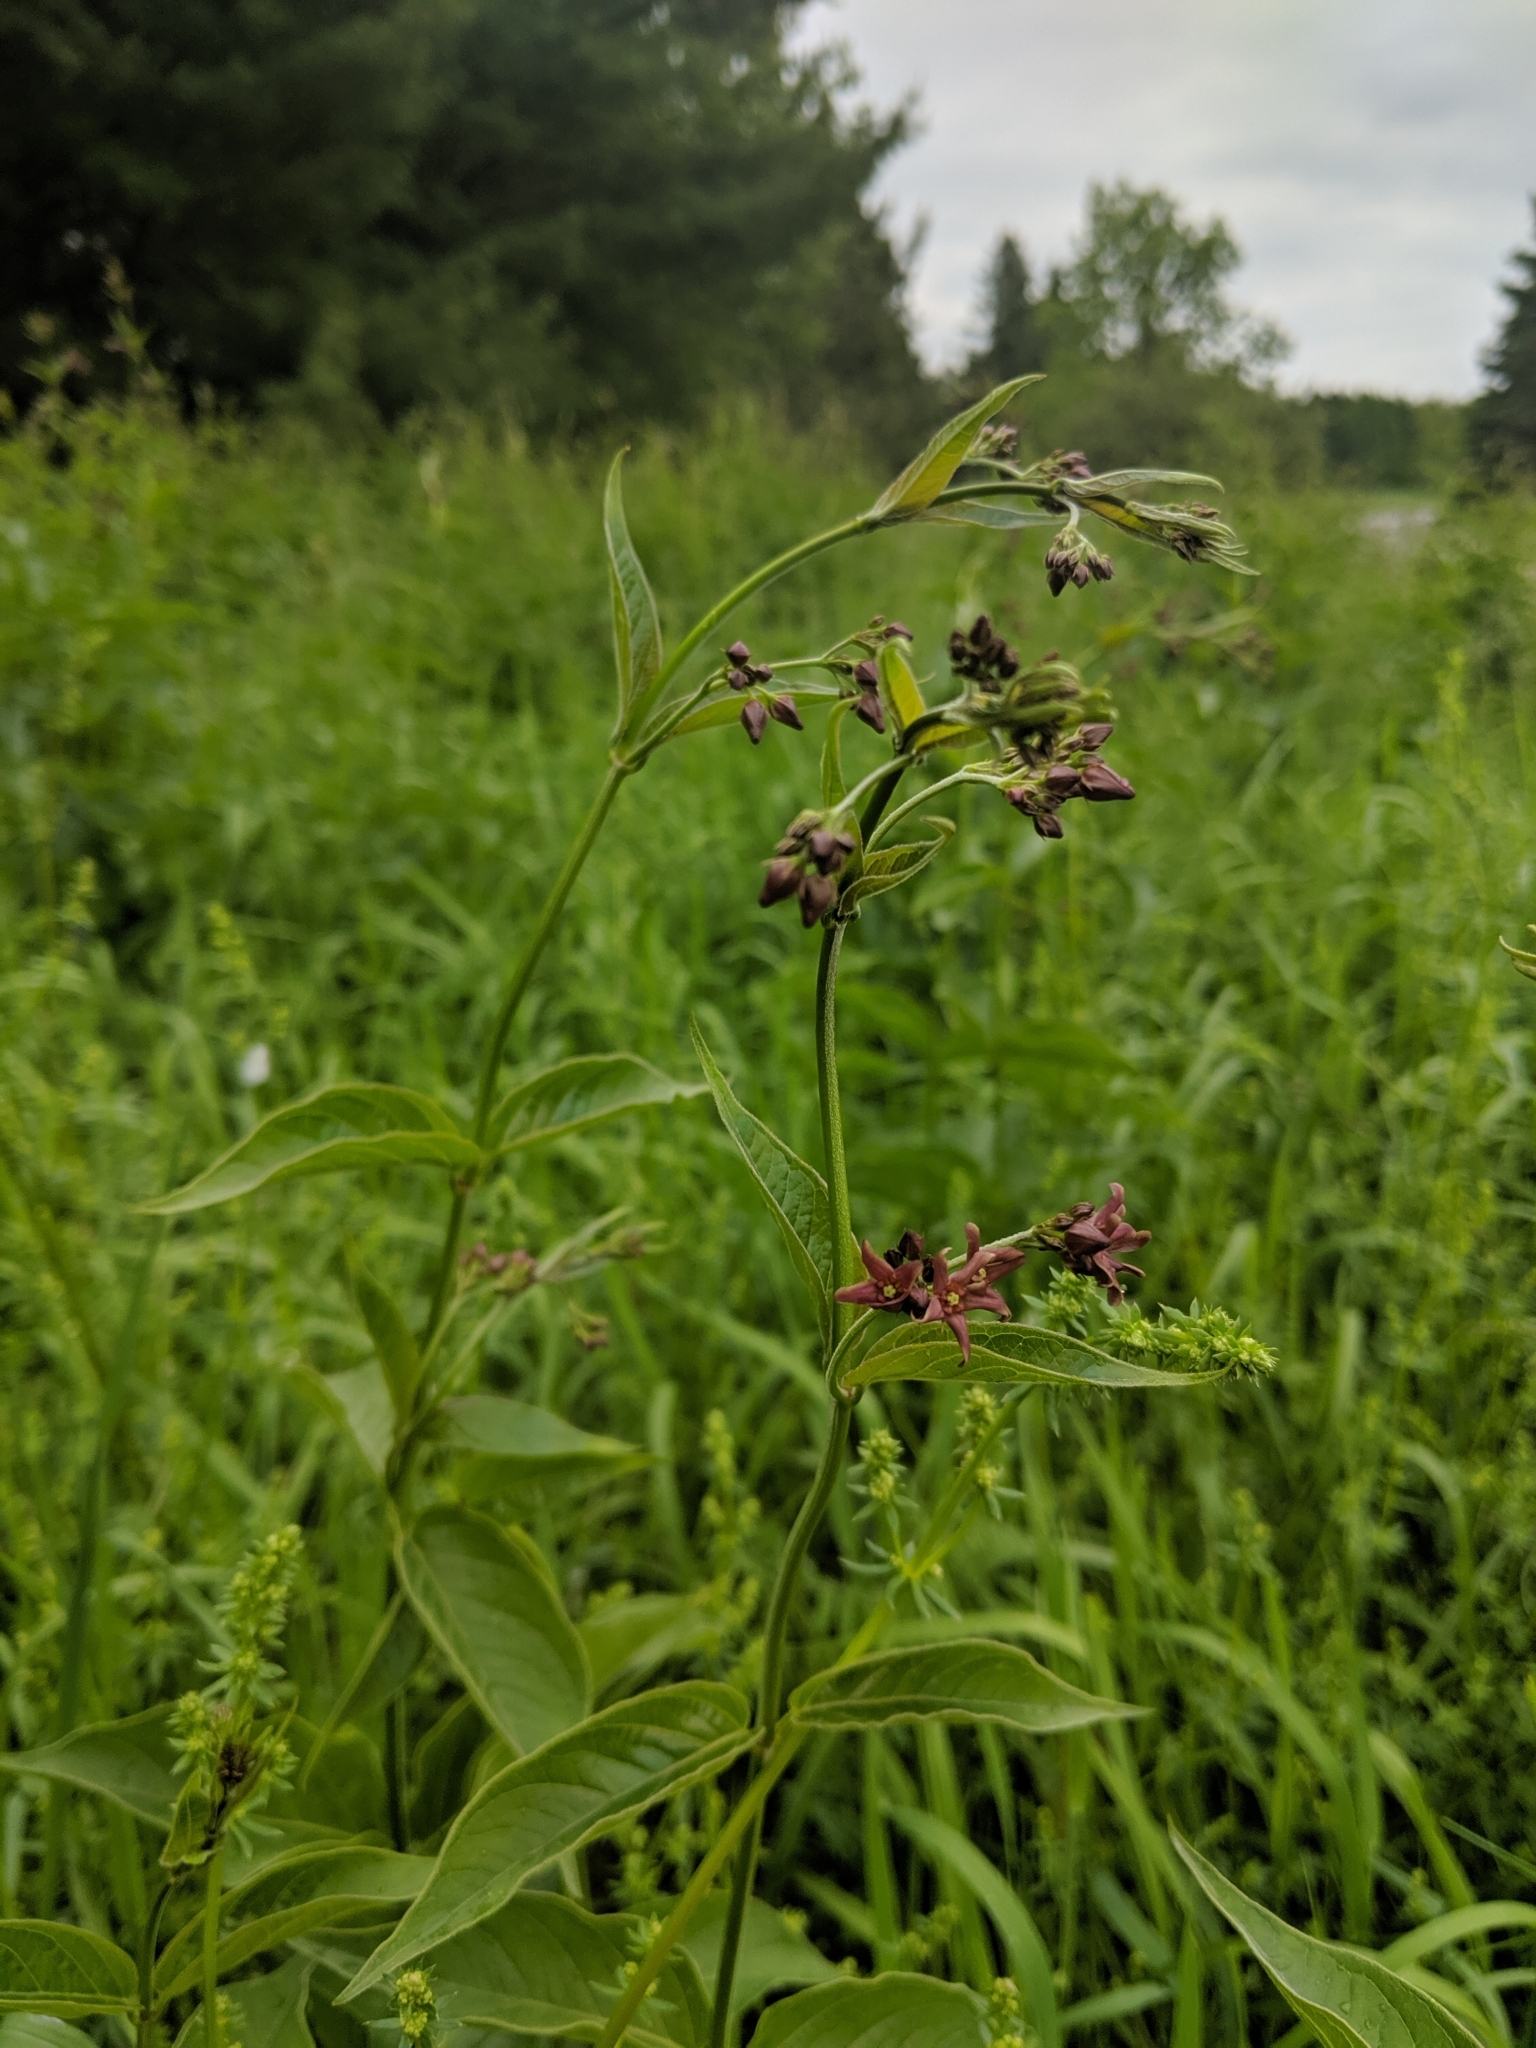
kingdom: Plantae
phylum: Tracheophyta
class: Magnoliopsida
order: Gentianales
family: Apocynaceae
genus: Vincetoxicum
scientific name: Vincetoxicum rossicum
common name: Dog-strangling vine
